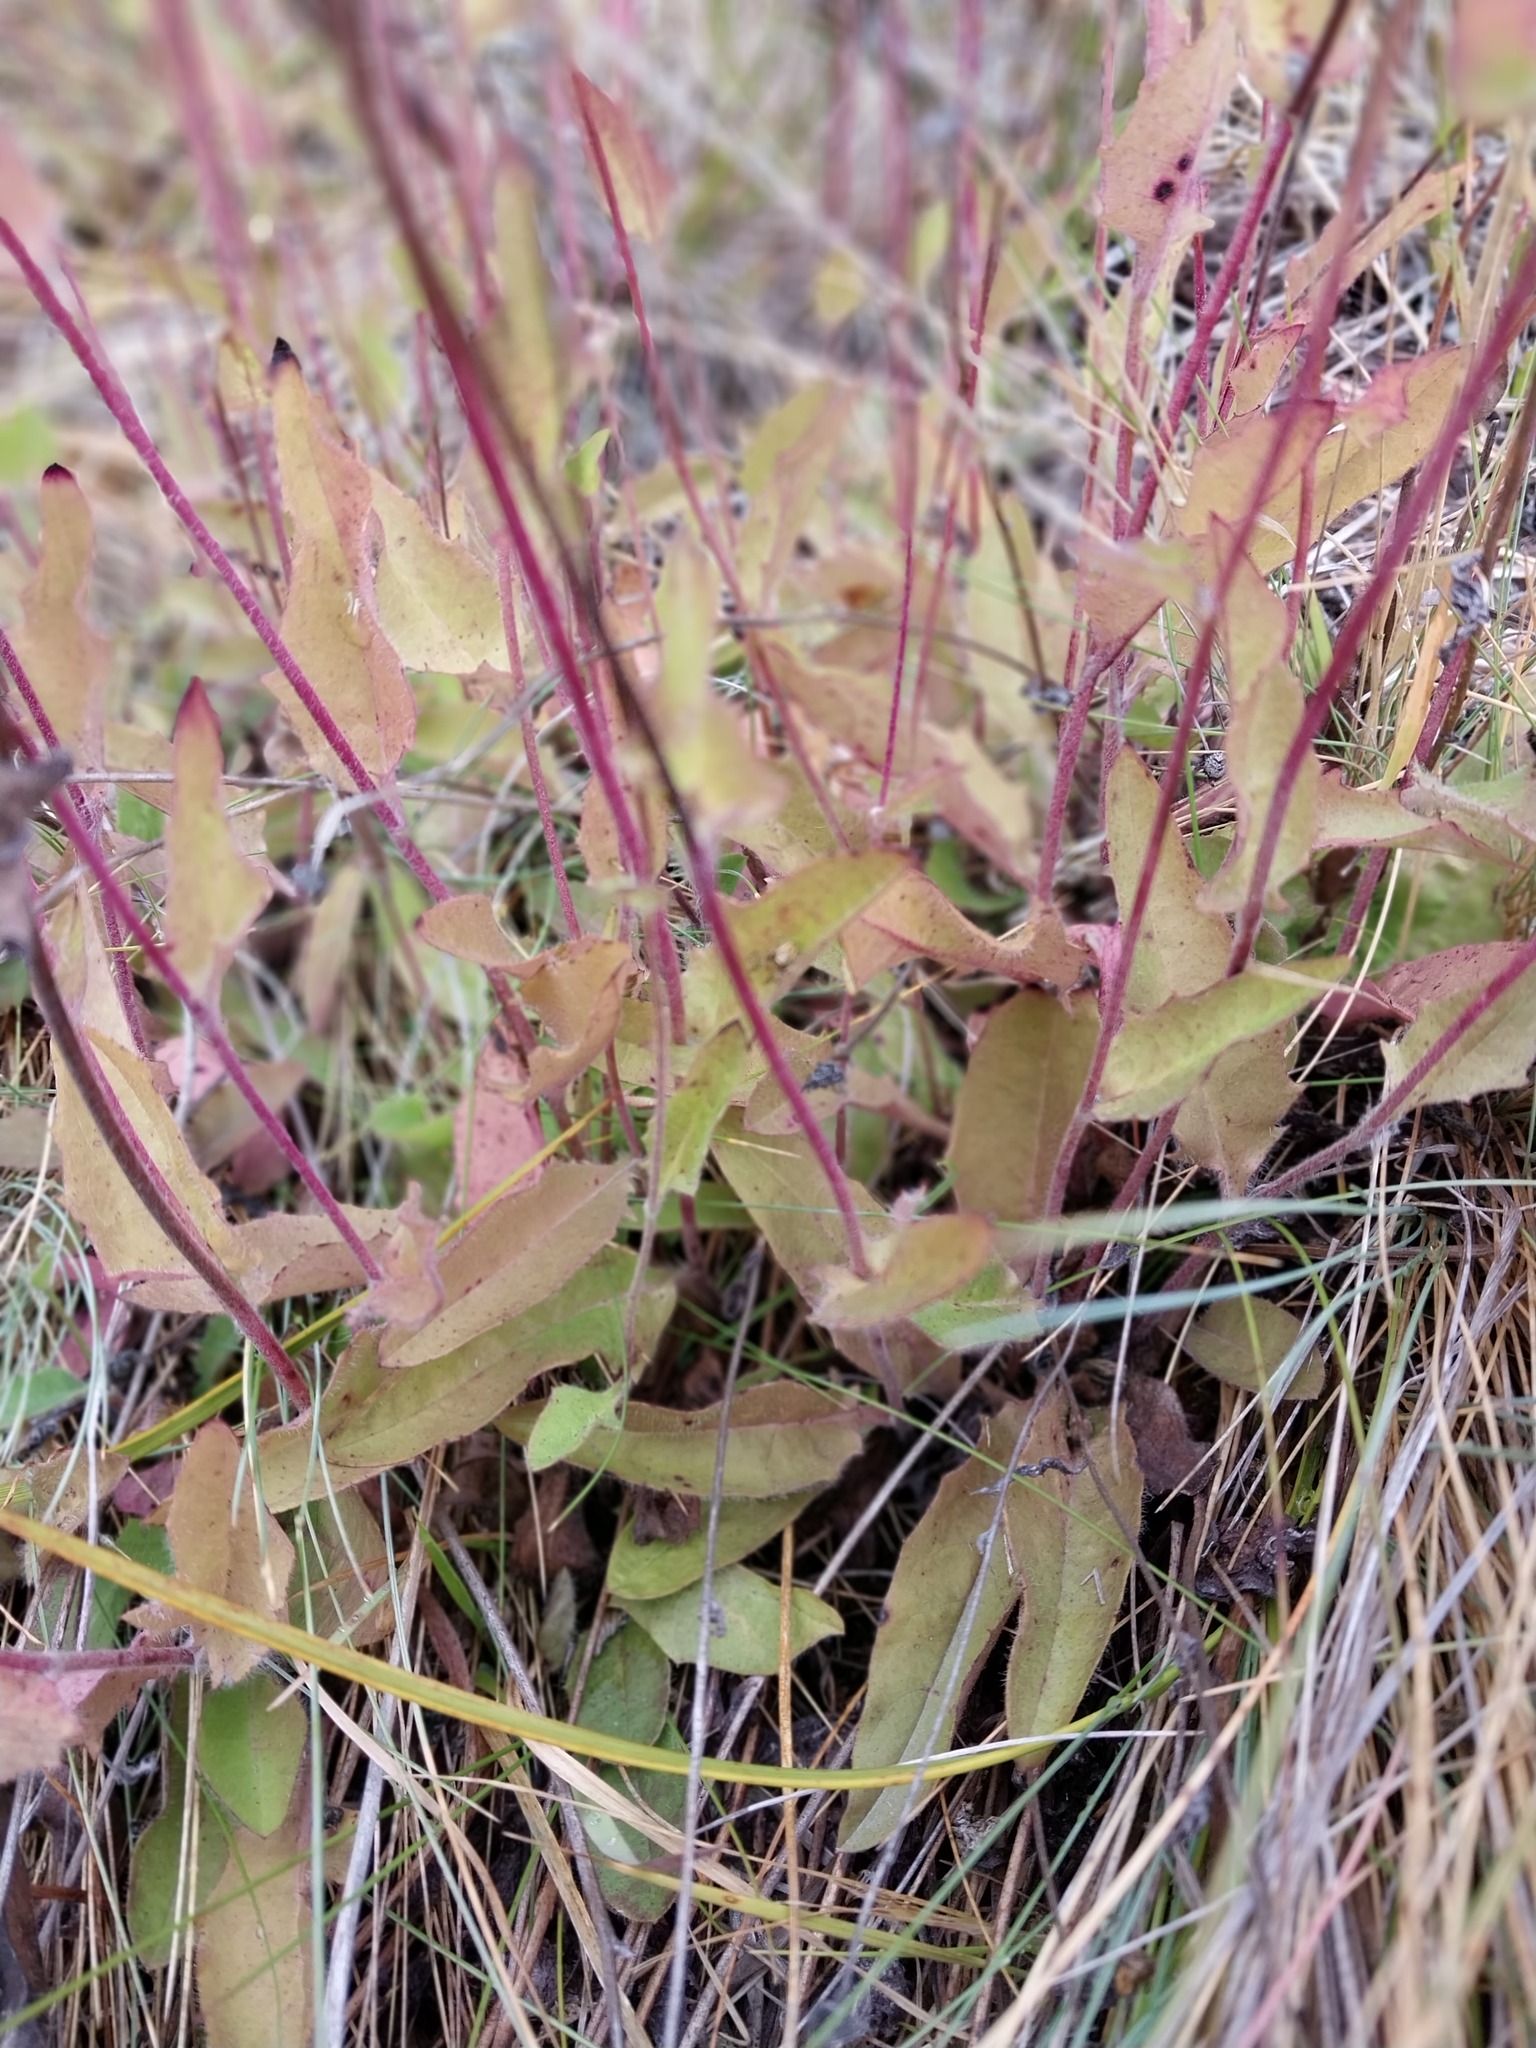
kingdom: Plantae
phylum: Tracheophyta
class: Magnoliopsida
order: Asterales
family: Asteraceae
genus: Hieracium
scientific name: Hieracium lepidulum
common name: Irregular-toothed hawkweed
